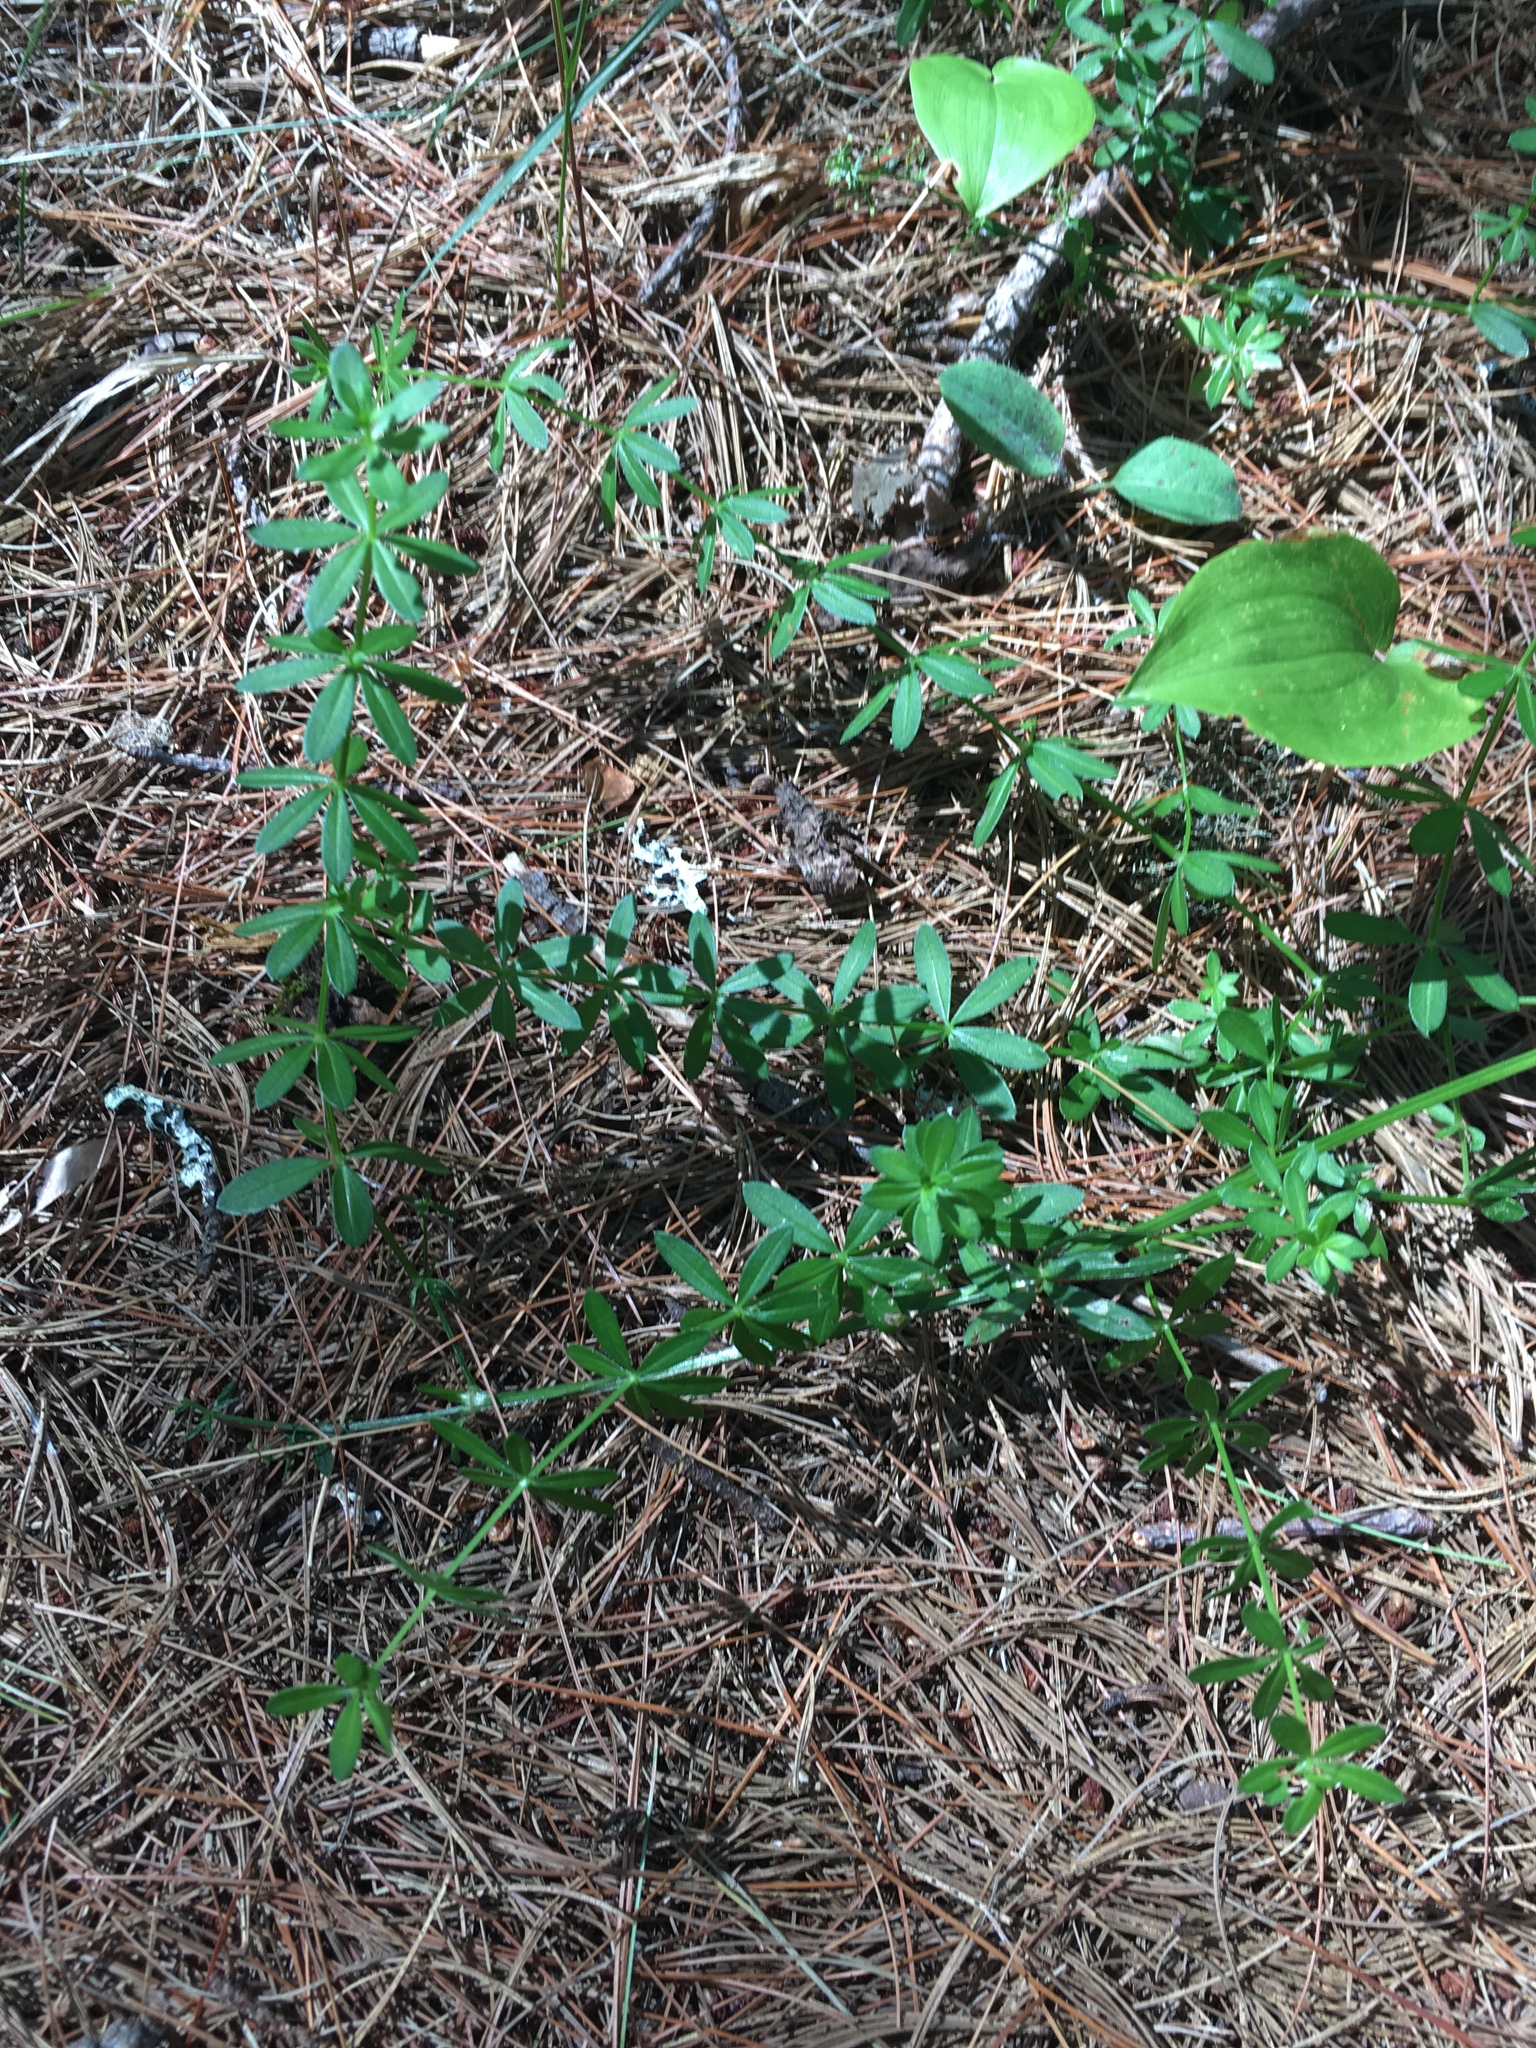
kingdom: Plantae
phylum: Tracheophyta
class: Magnoliopsida
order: Gentianales
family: Rubiaceae
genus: Galium
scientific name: Galium mollugo
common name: Hedge bedstraw
